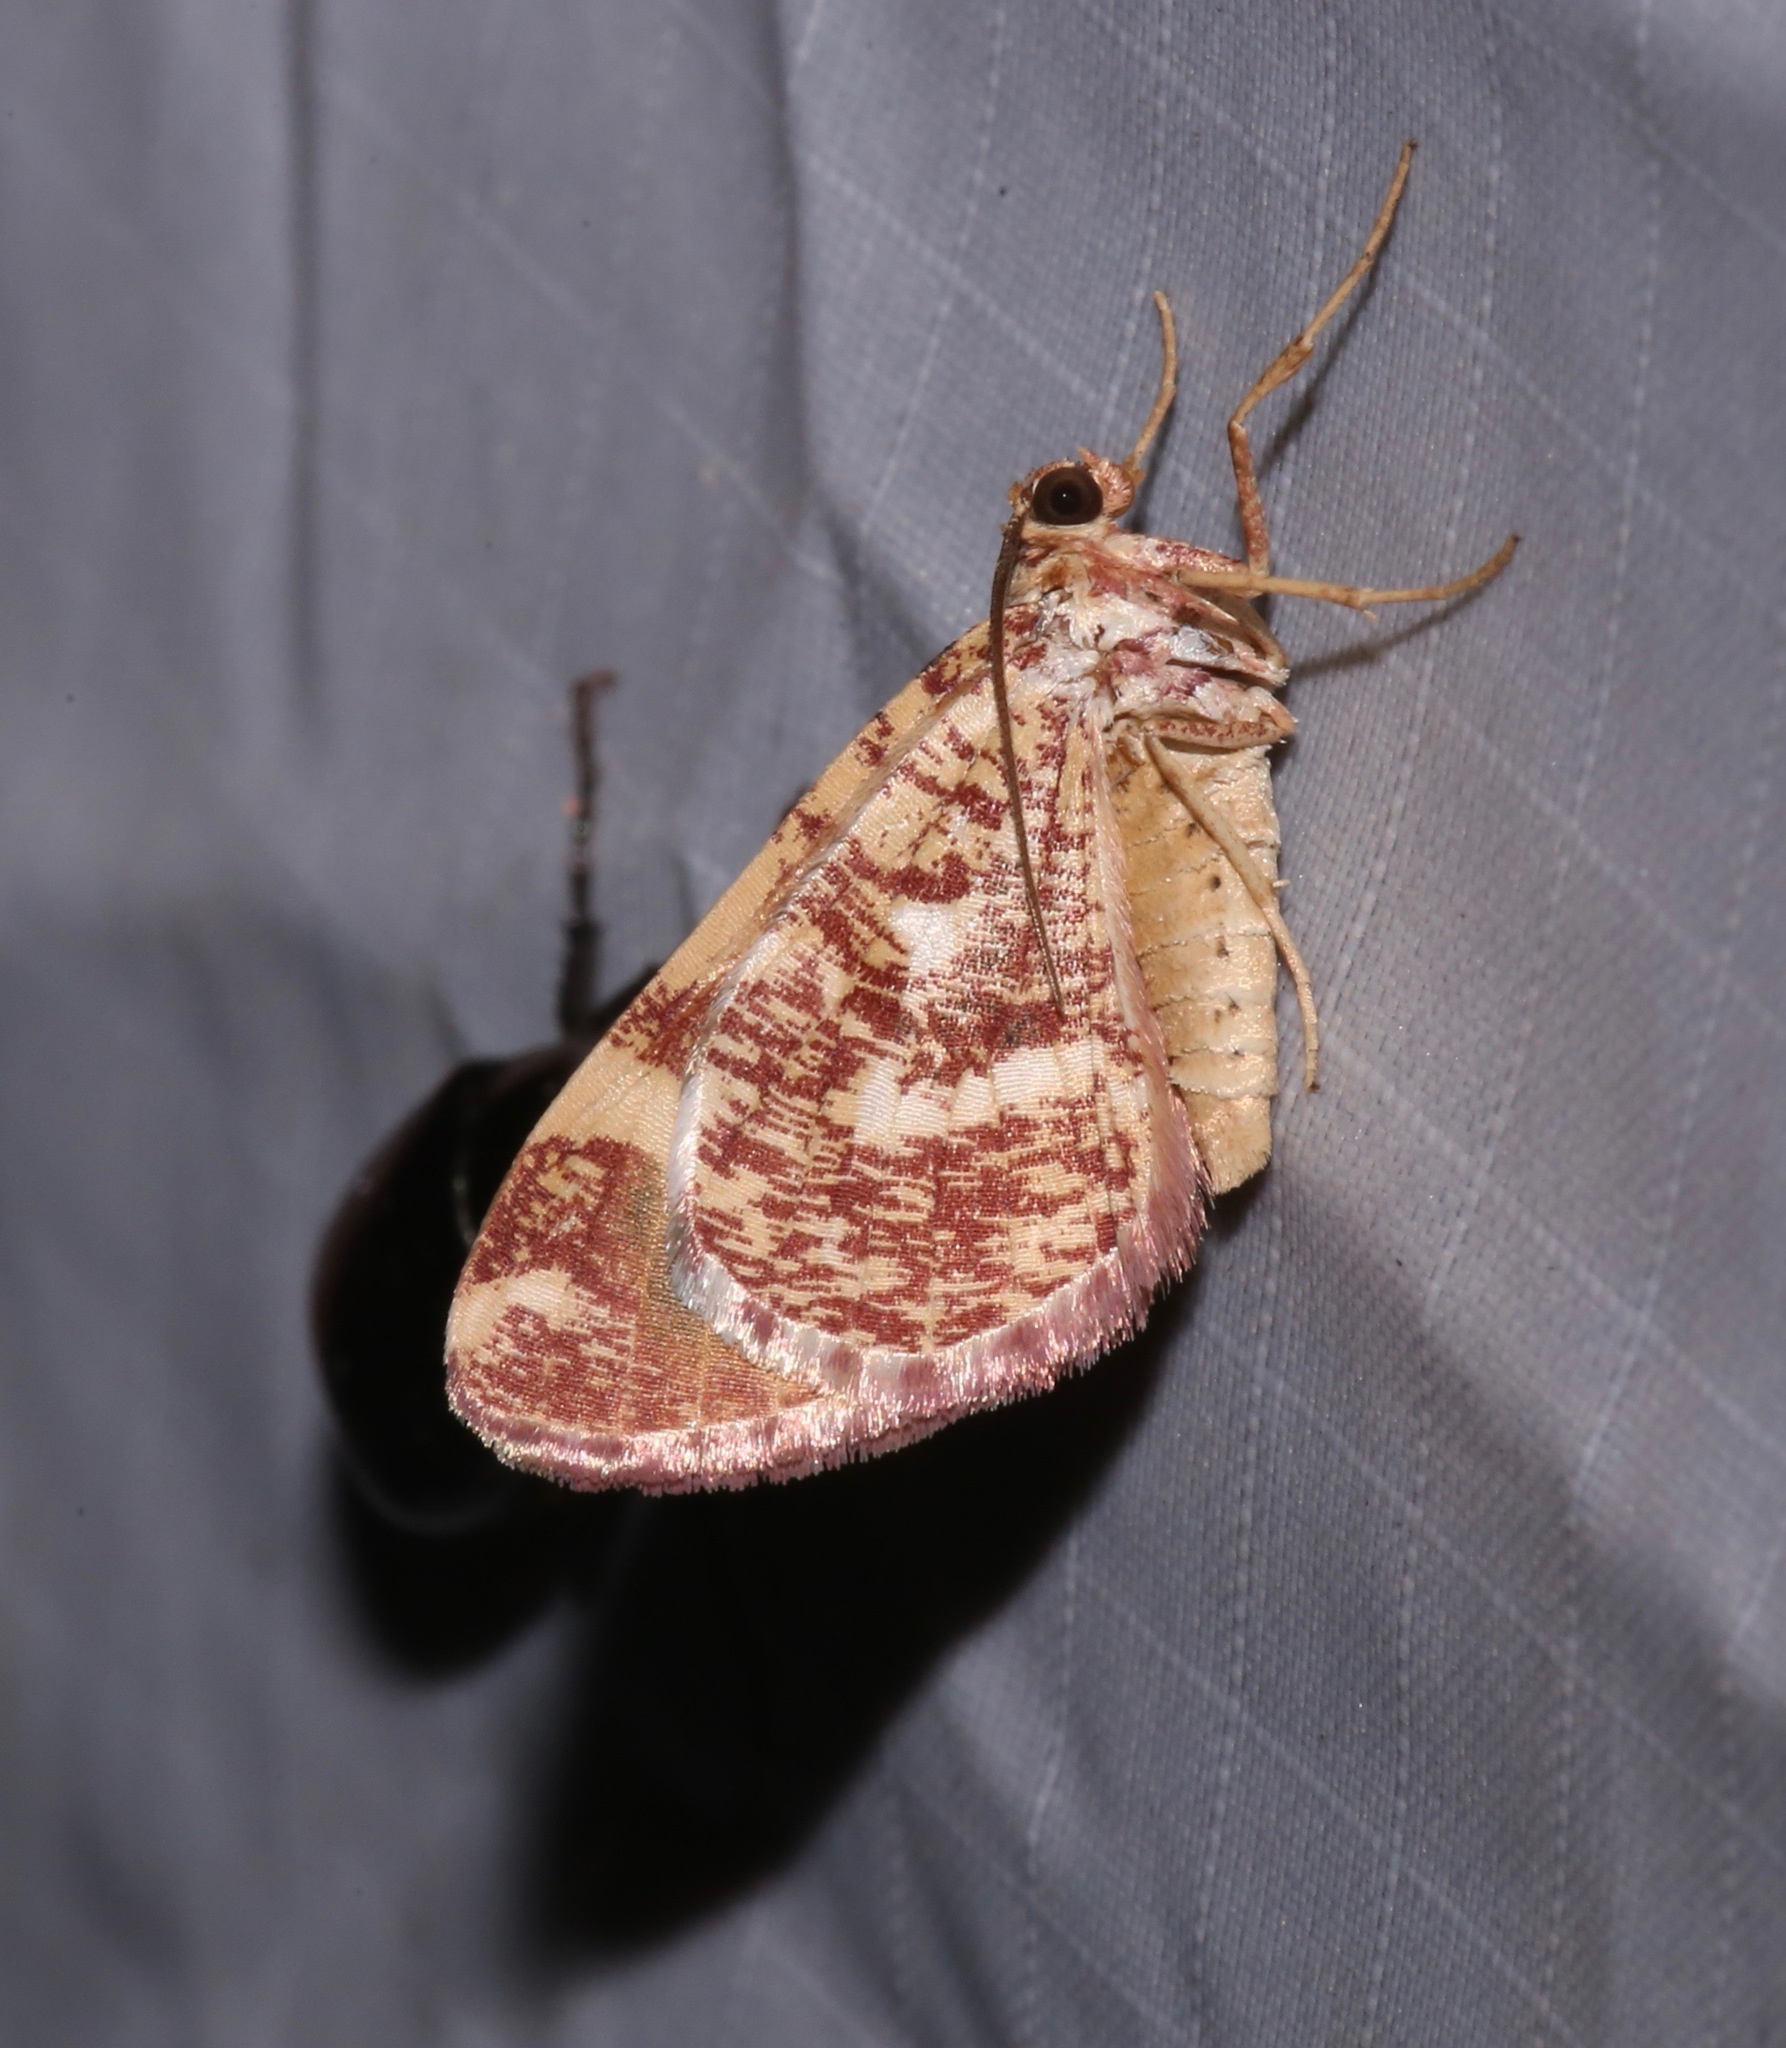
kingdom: Animalia
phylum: Arthropoda
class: Insecta
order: Lepidoptera
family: Geometridae
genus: Stamnodes
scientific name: Stamnodes franckata
